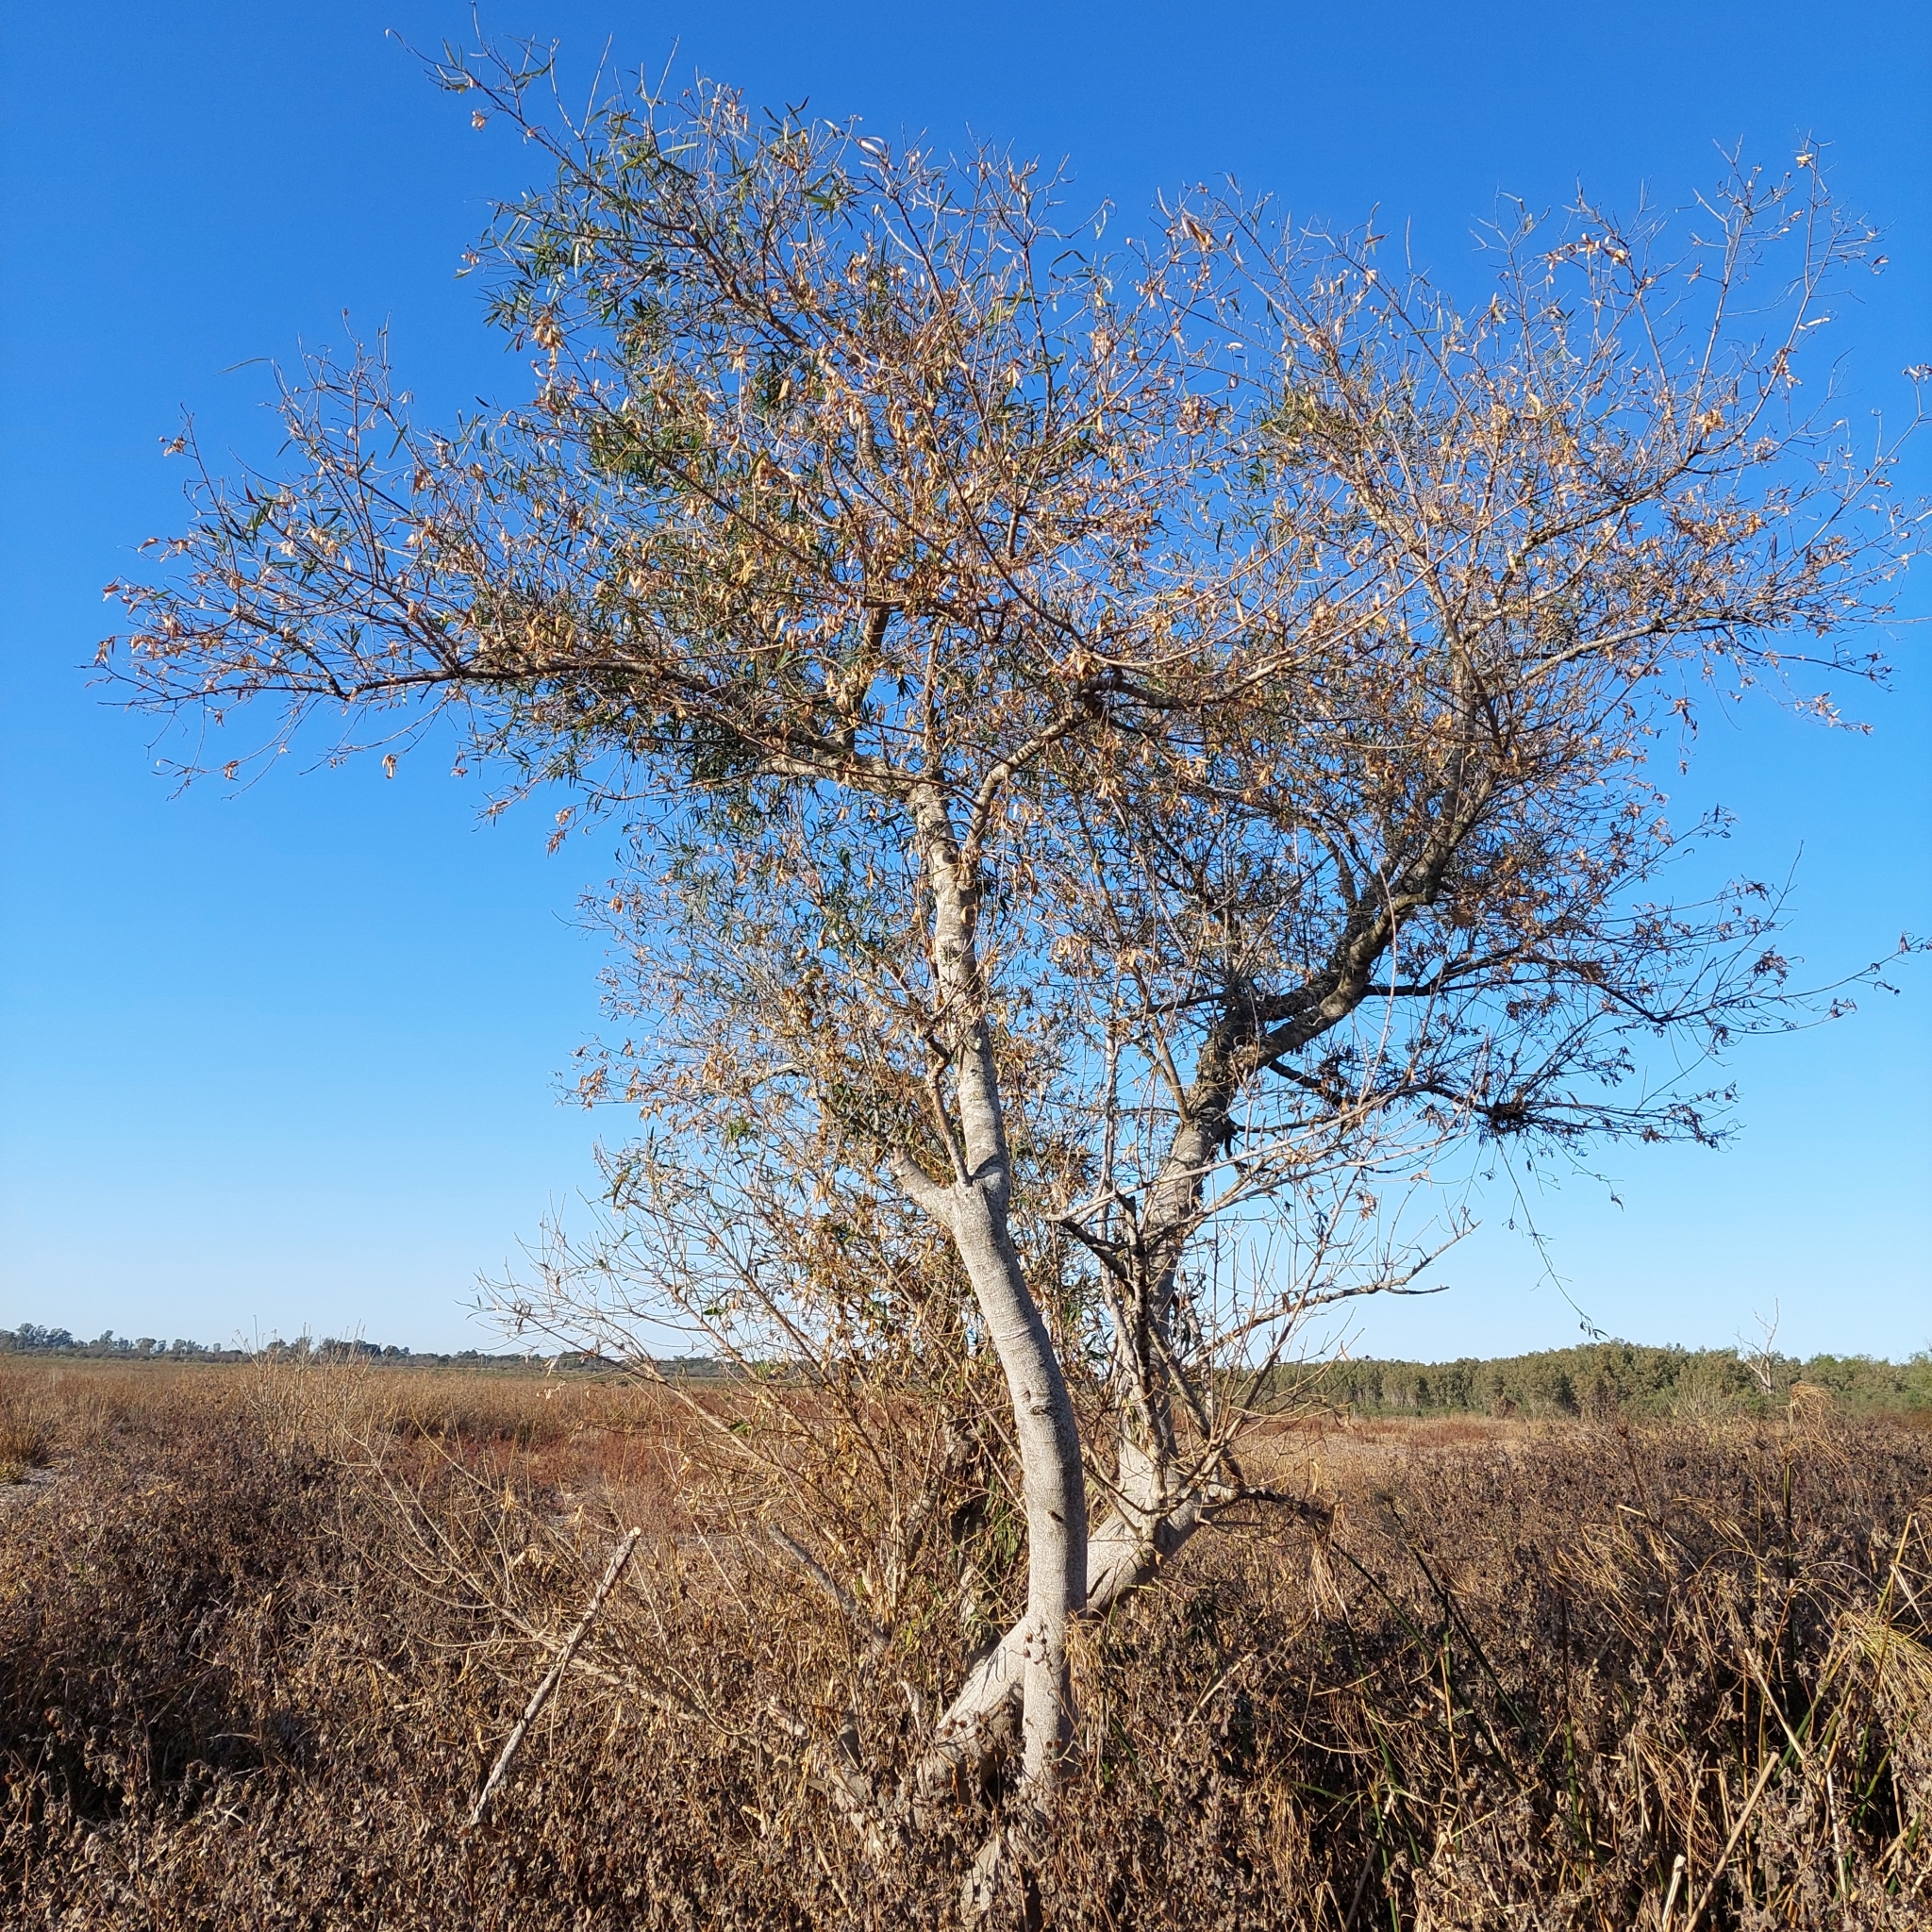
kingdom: Plantae
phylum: Tracheophyta
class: Magnoliopsida
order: Malpighiales
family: Euphorbiaceae
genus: Sapium
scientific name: Sapium haematospermum
